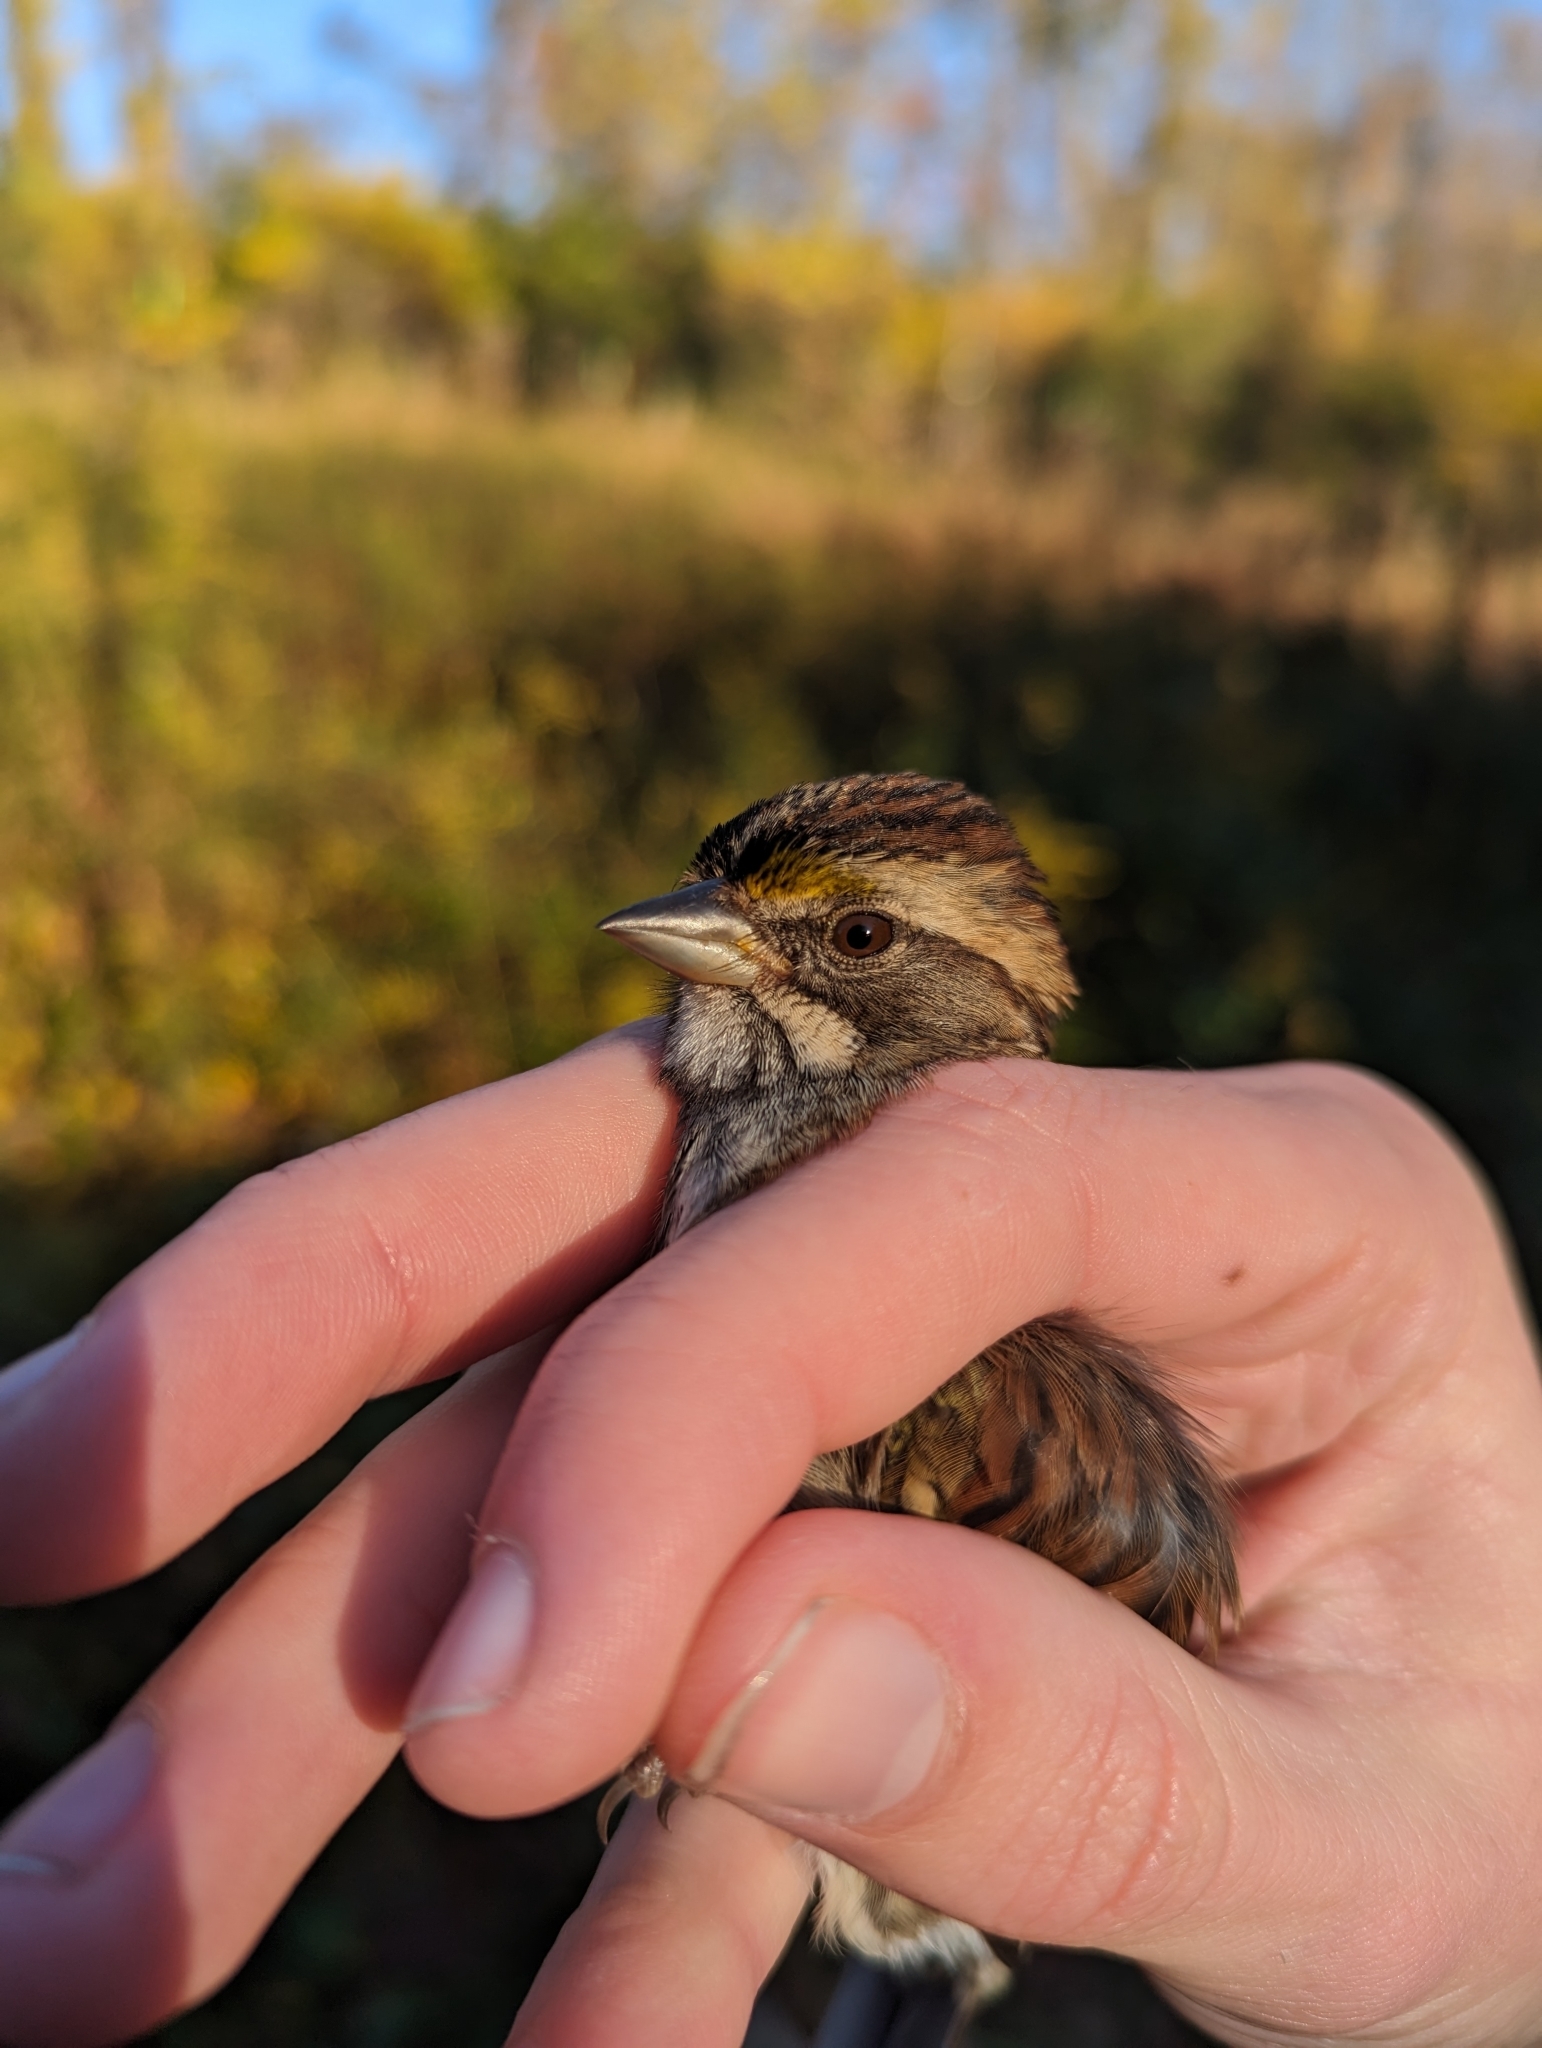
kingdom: Animalia
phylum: Chordata
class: Aves
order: Passeriformes
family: Passerellidae
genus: Zonotrichia
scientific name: Zonotrichia albicollis
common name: White-throated sparrow
